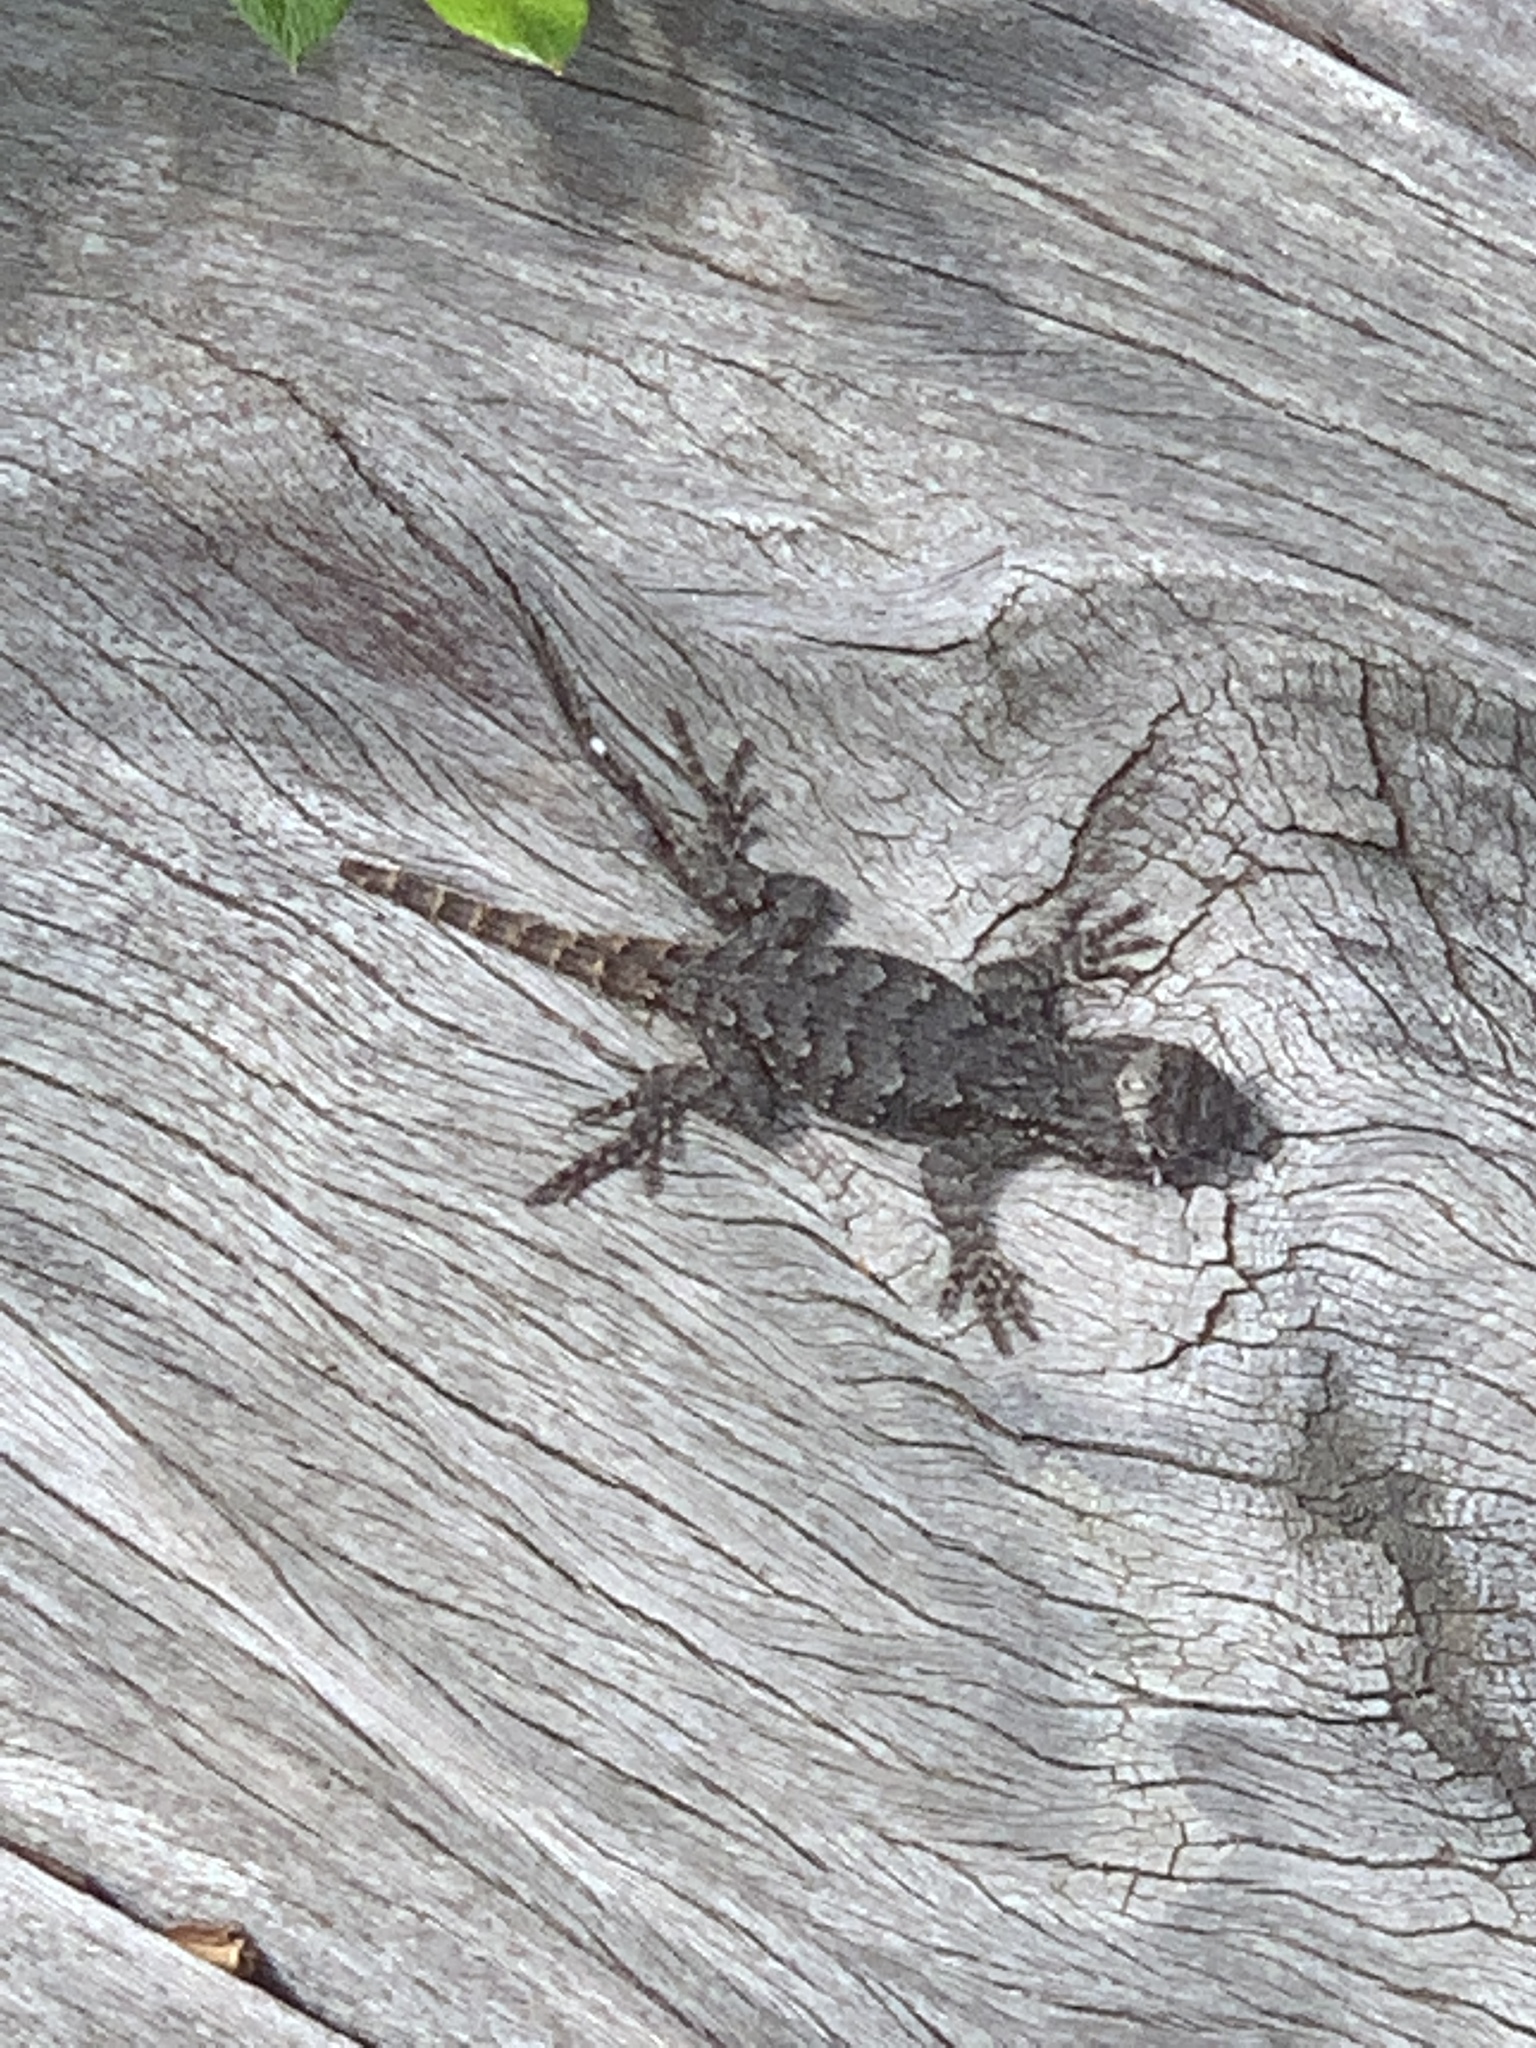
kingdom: Animalia
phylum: Chordata
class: Squamata
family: Phrynosomatidae
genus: Sceloporus
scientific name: Sceloporus undulatus
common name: Eastern fence lizard
